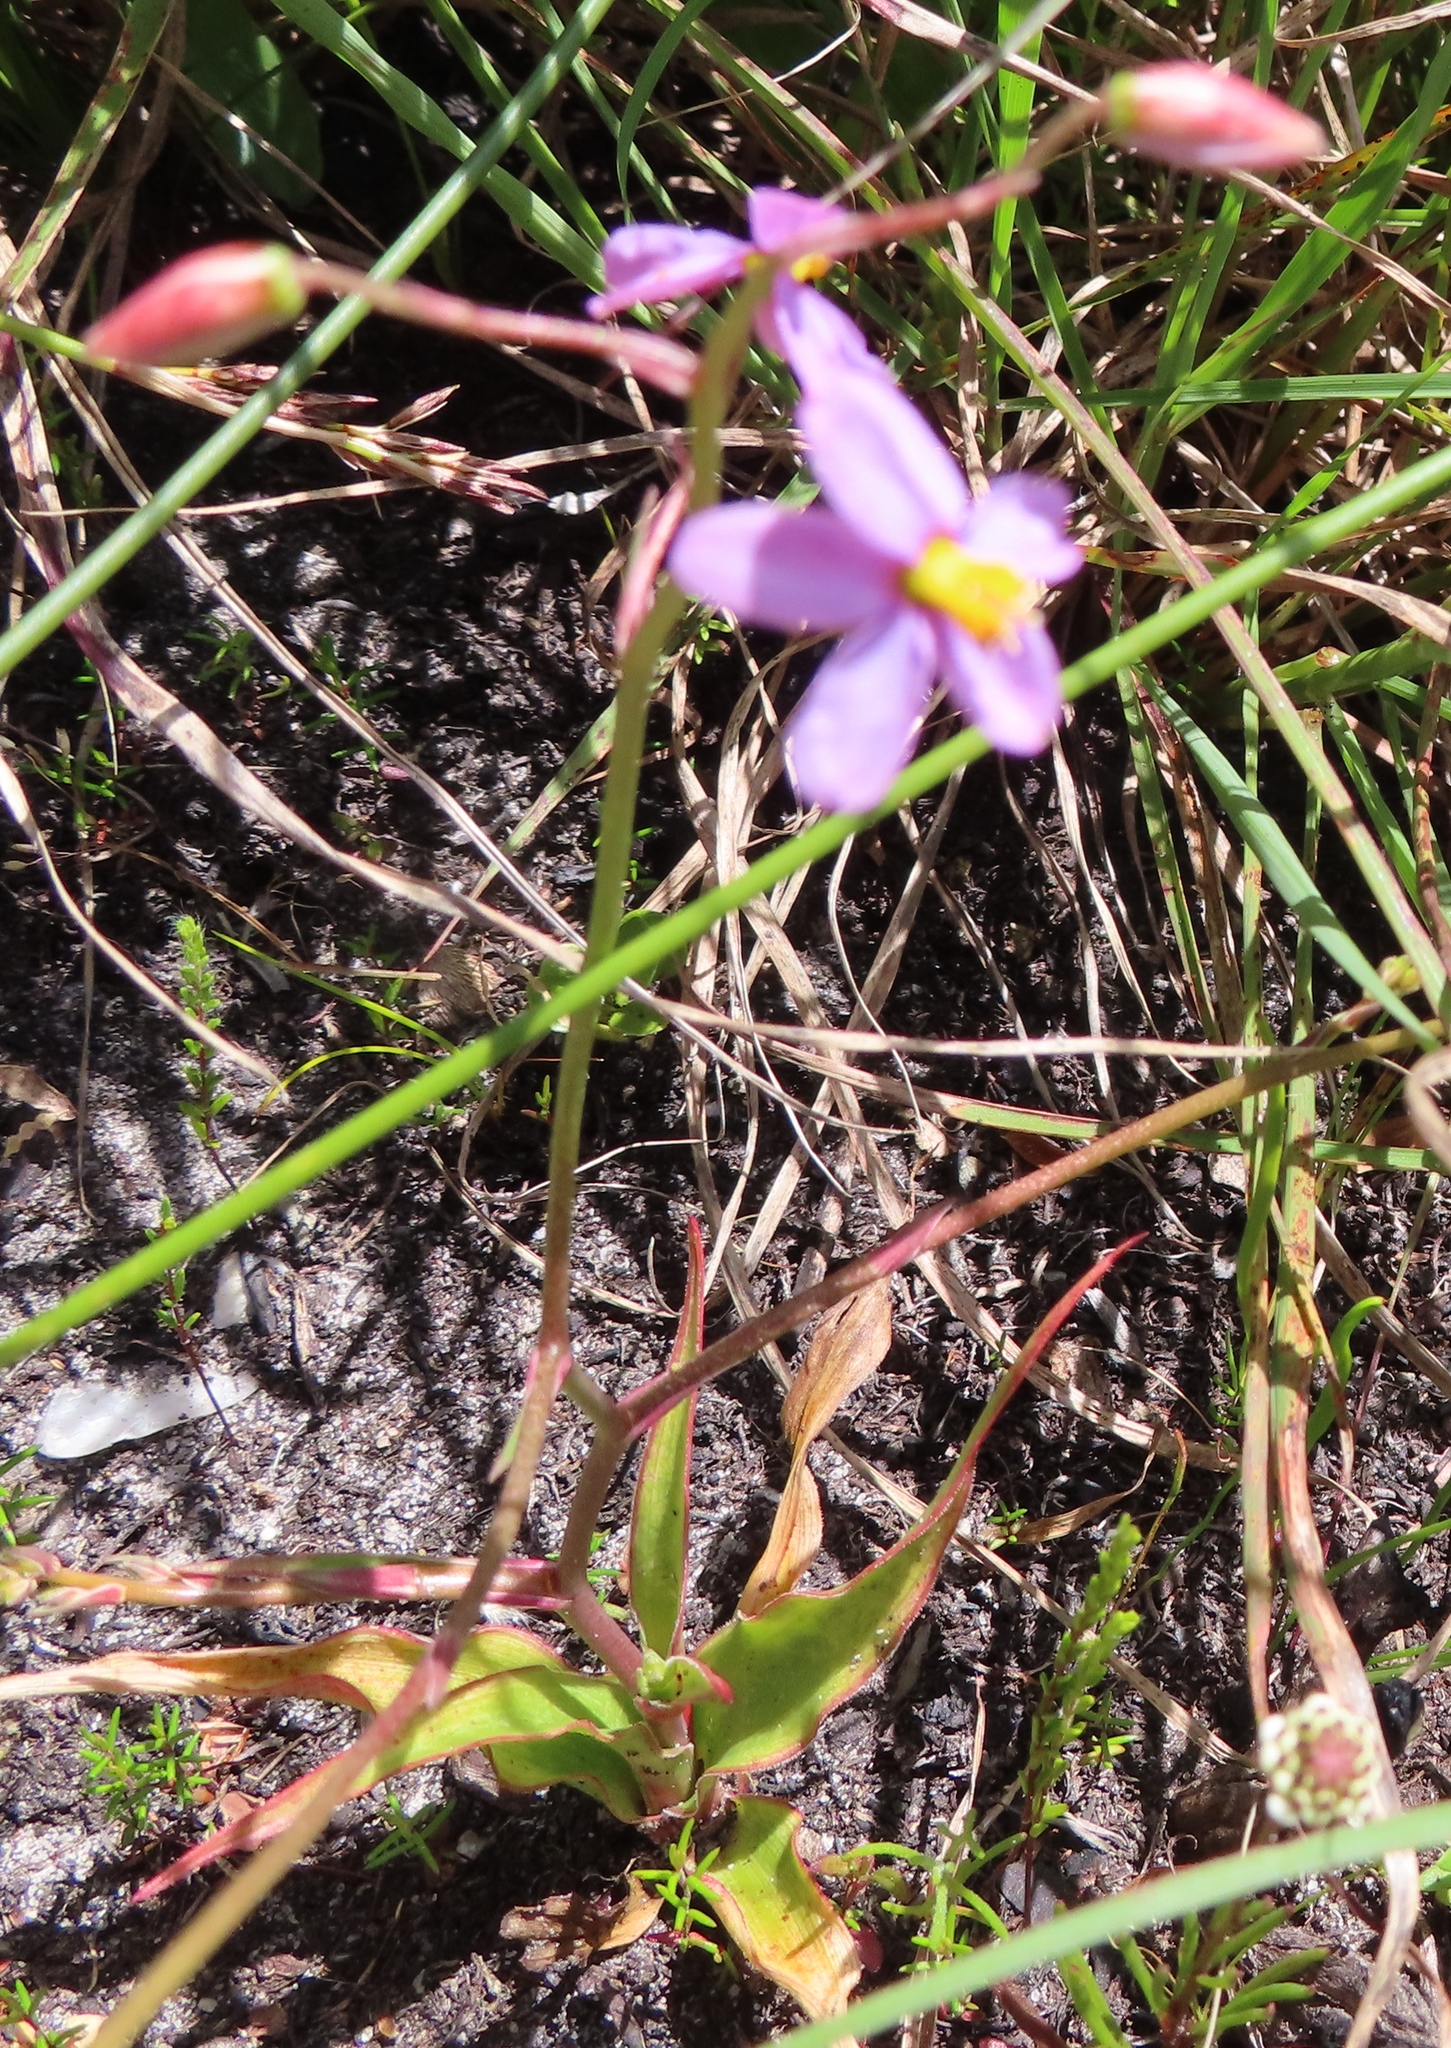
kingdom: Plantae
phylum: Tracheophyta
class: Liliopsida
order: Asparagales
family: Tecophilaeaceae
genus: Cyanella
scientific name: Cyanella hyacinthoides
